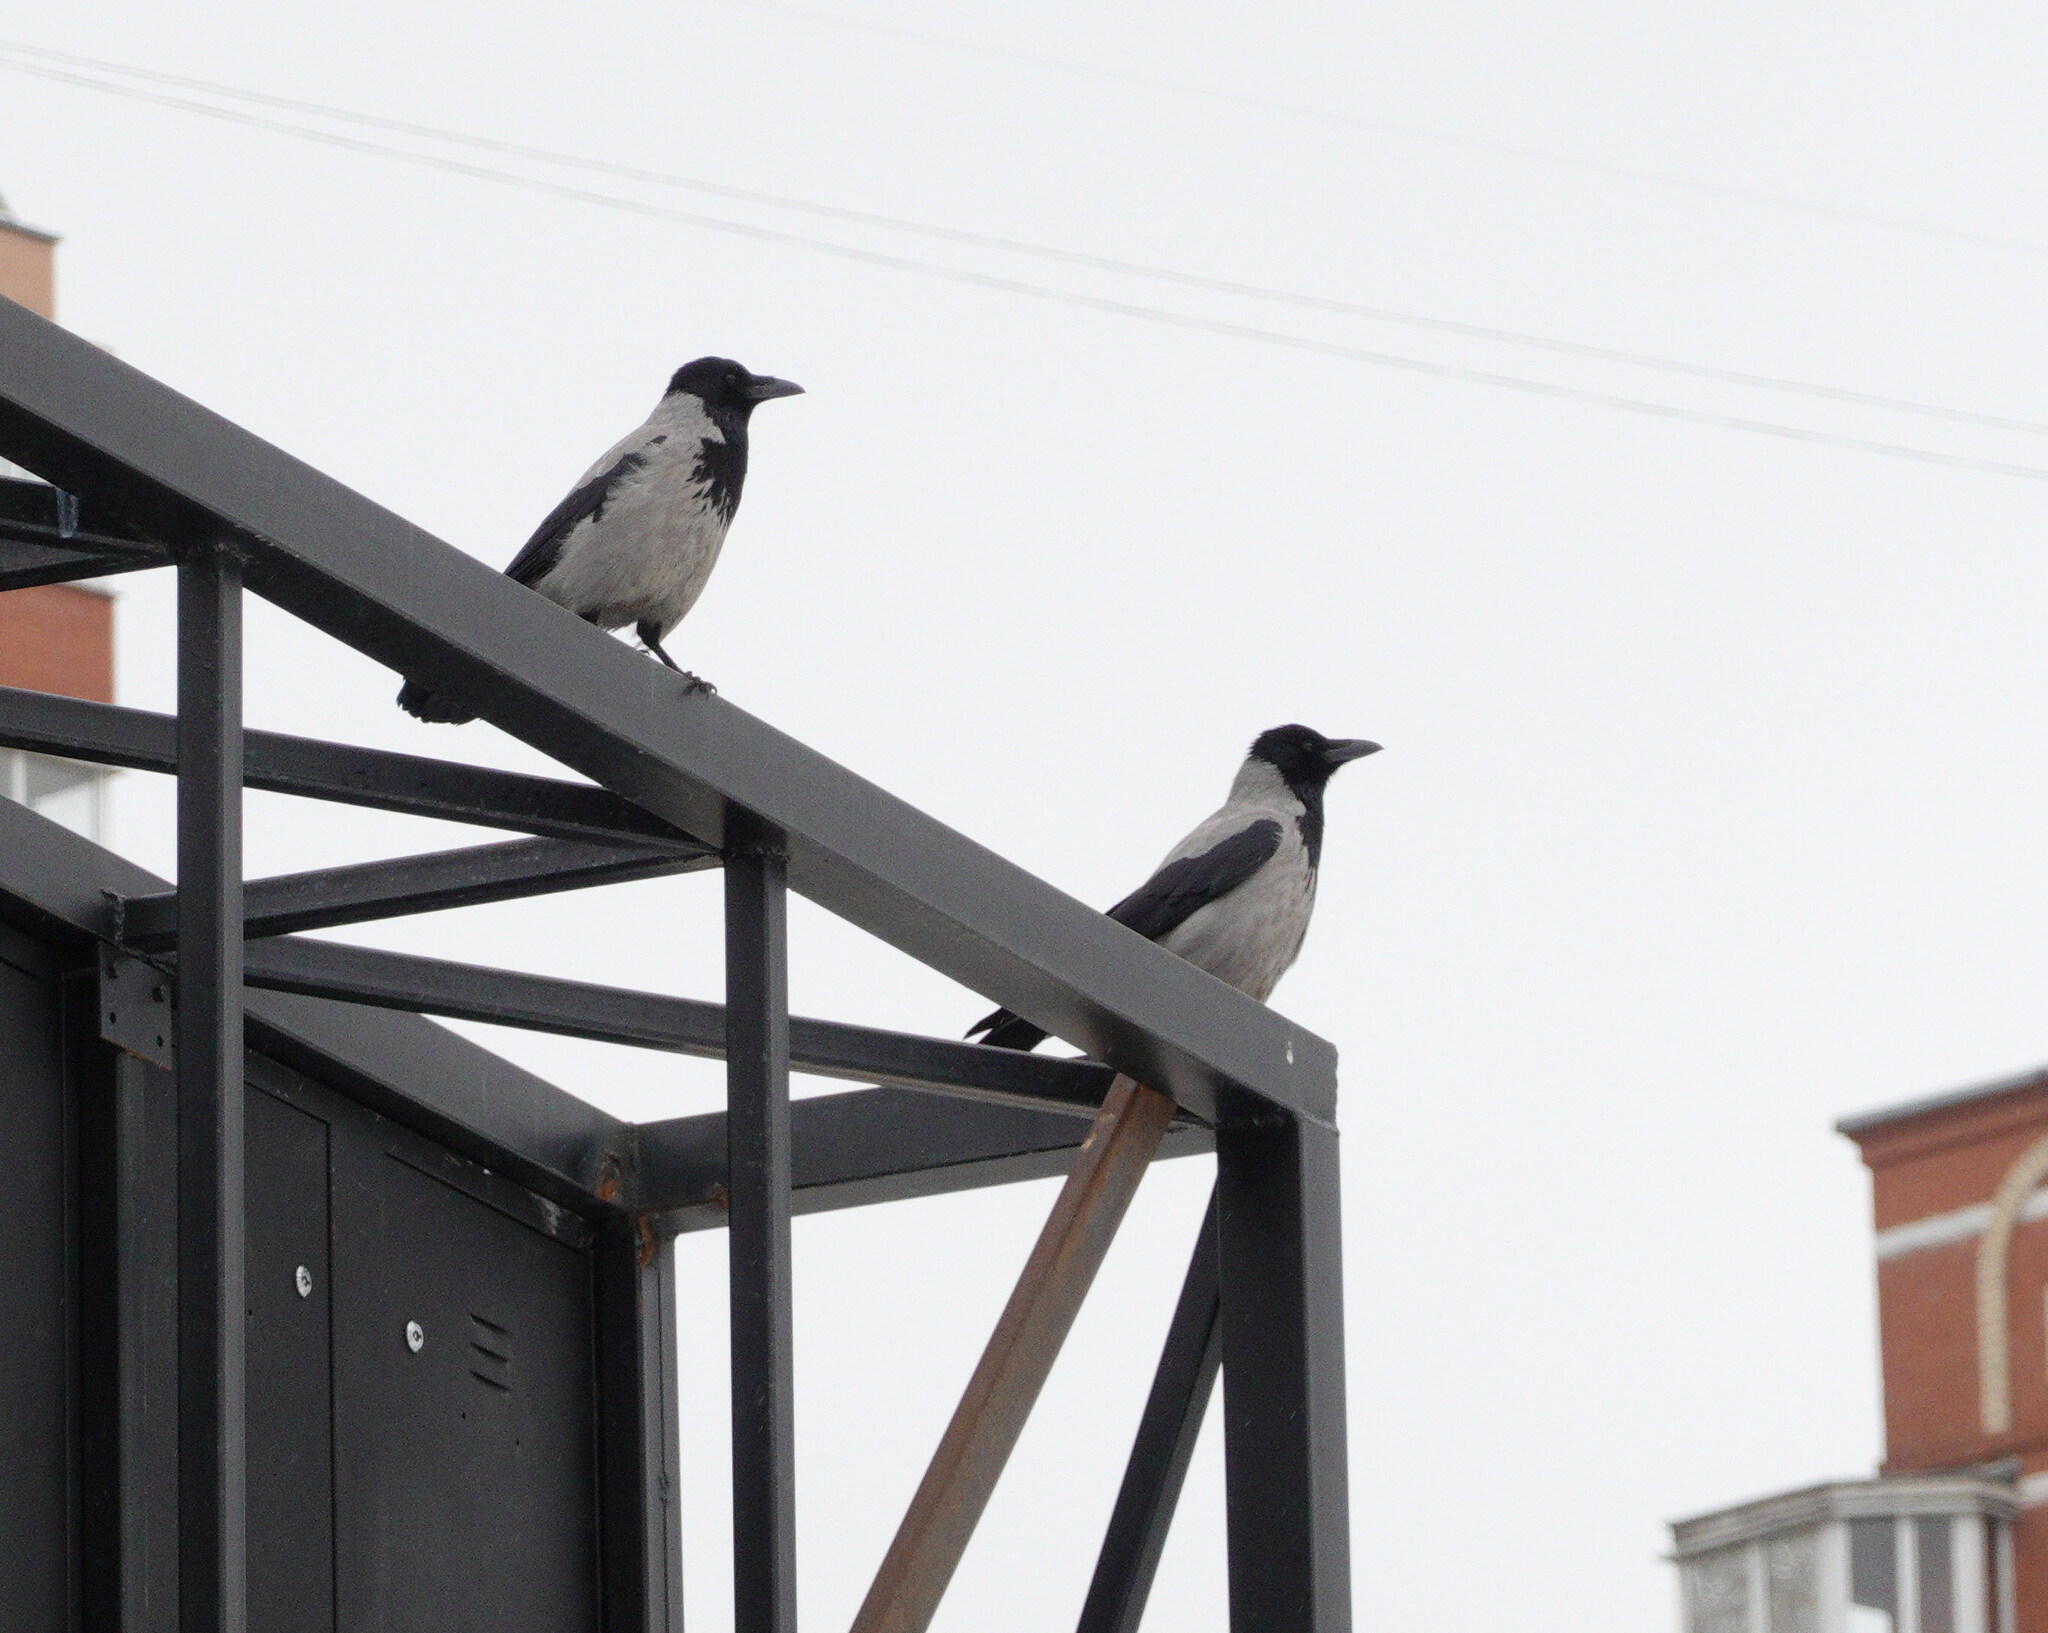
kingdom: Animalia
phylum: Chordata
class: Aves
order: Passeriformes
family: Corvidae
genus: Corvus
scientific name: Corvus cornix
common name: Hooded crow
